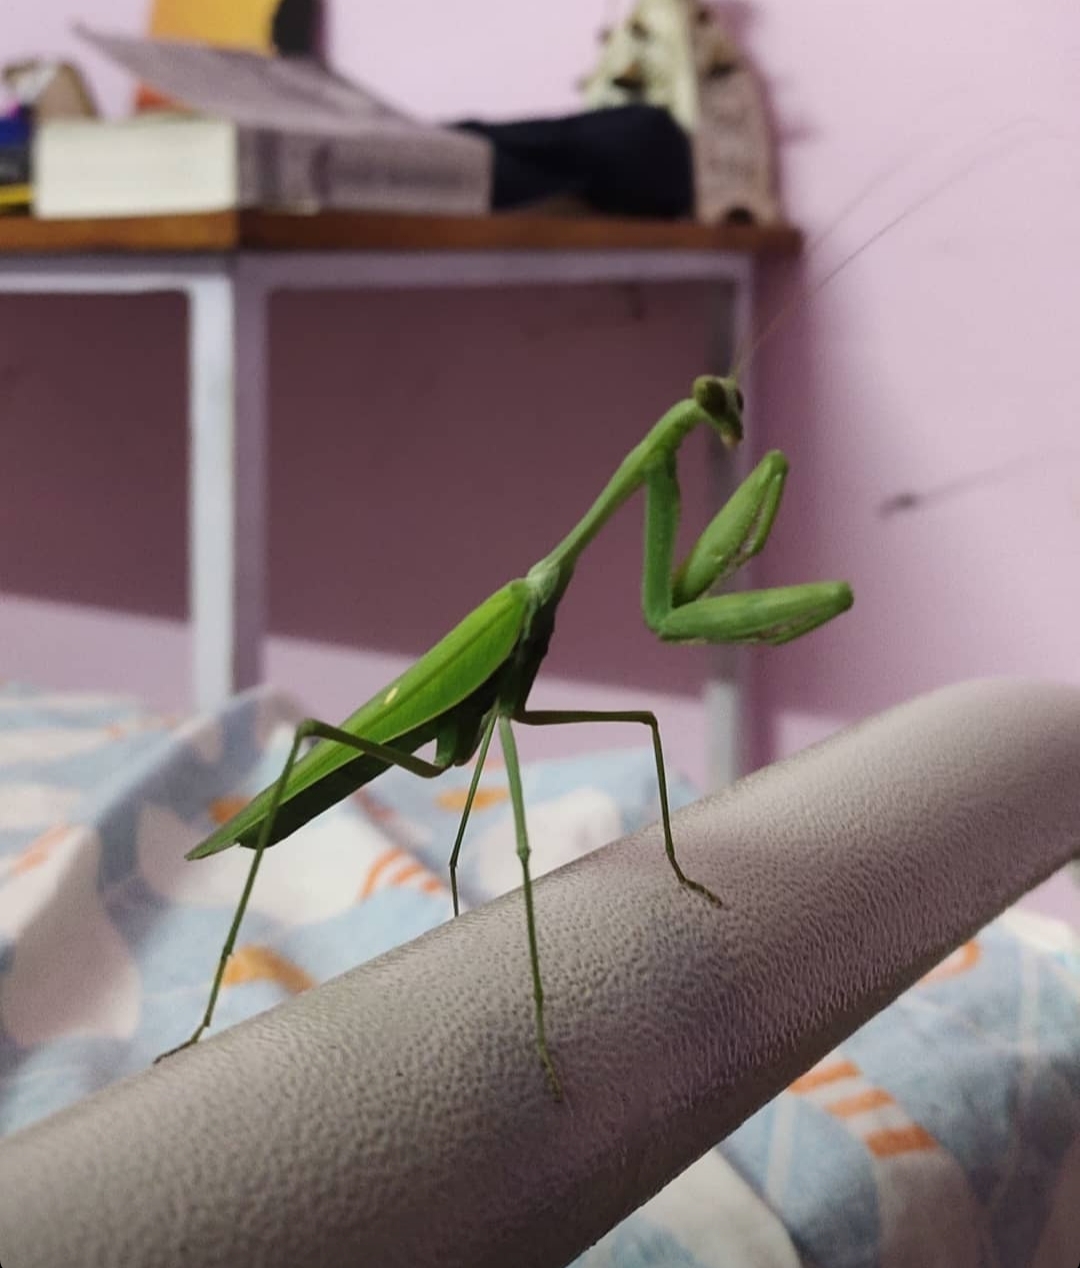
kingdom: Animalia
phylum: Arthropoda
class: Insecta
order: Mantodea
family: Mantidae
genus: Hierodula
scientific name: Hierodula membranacea
